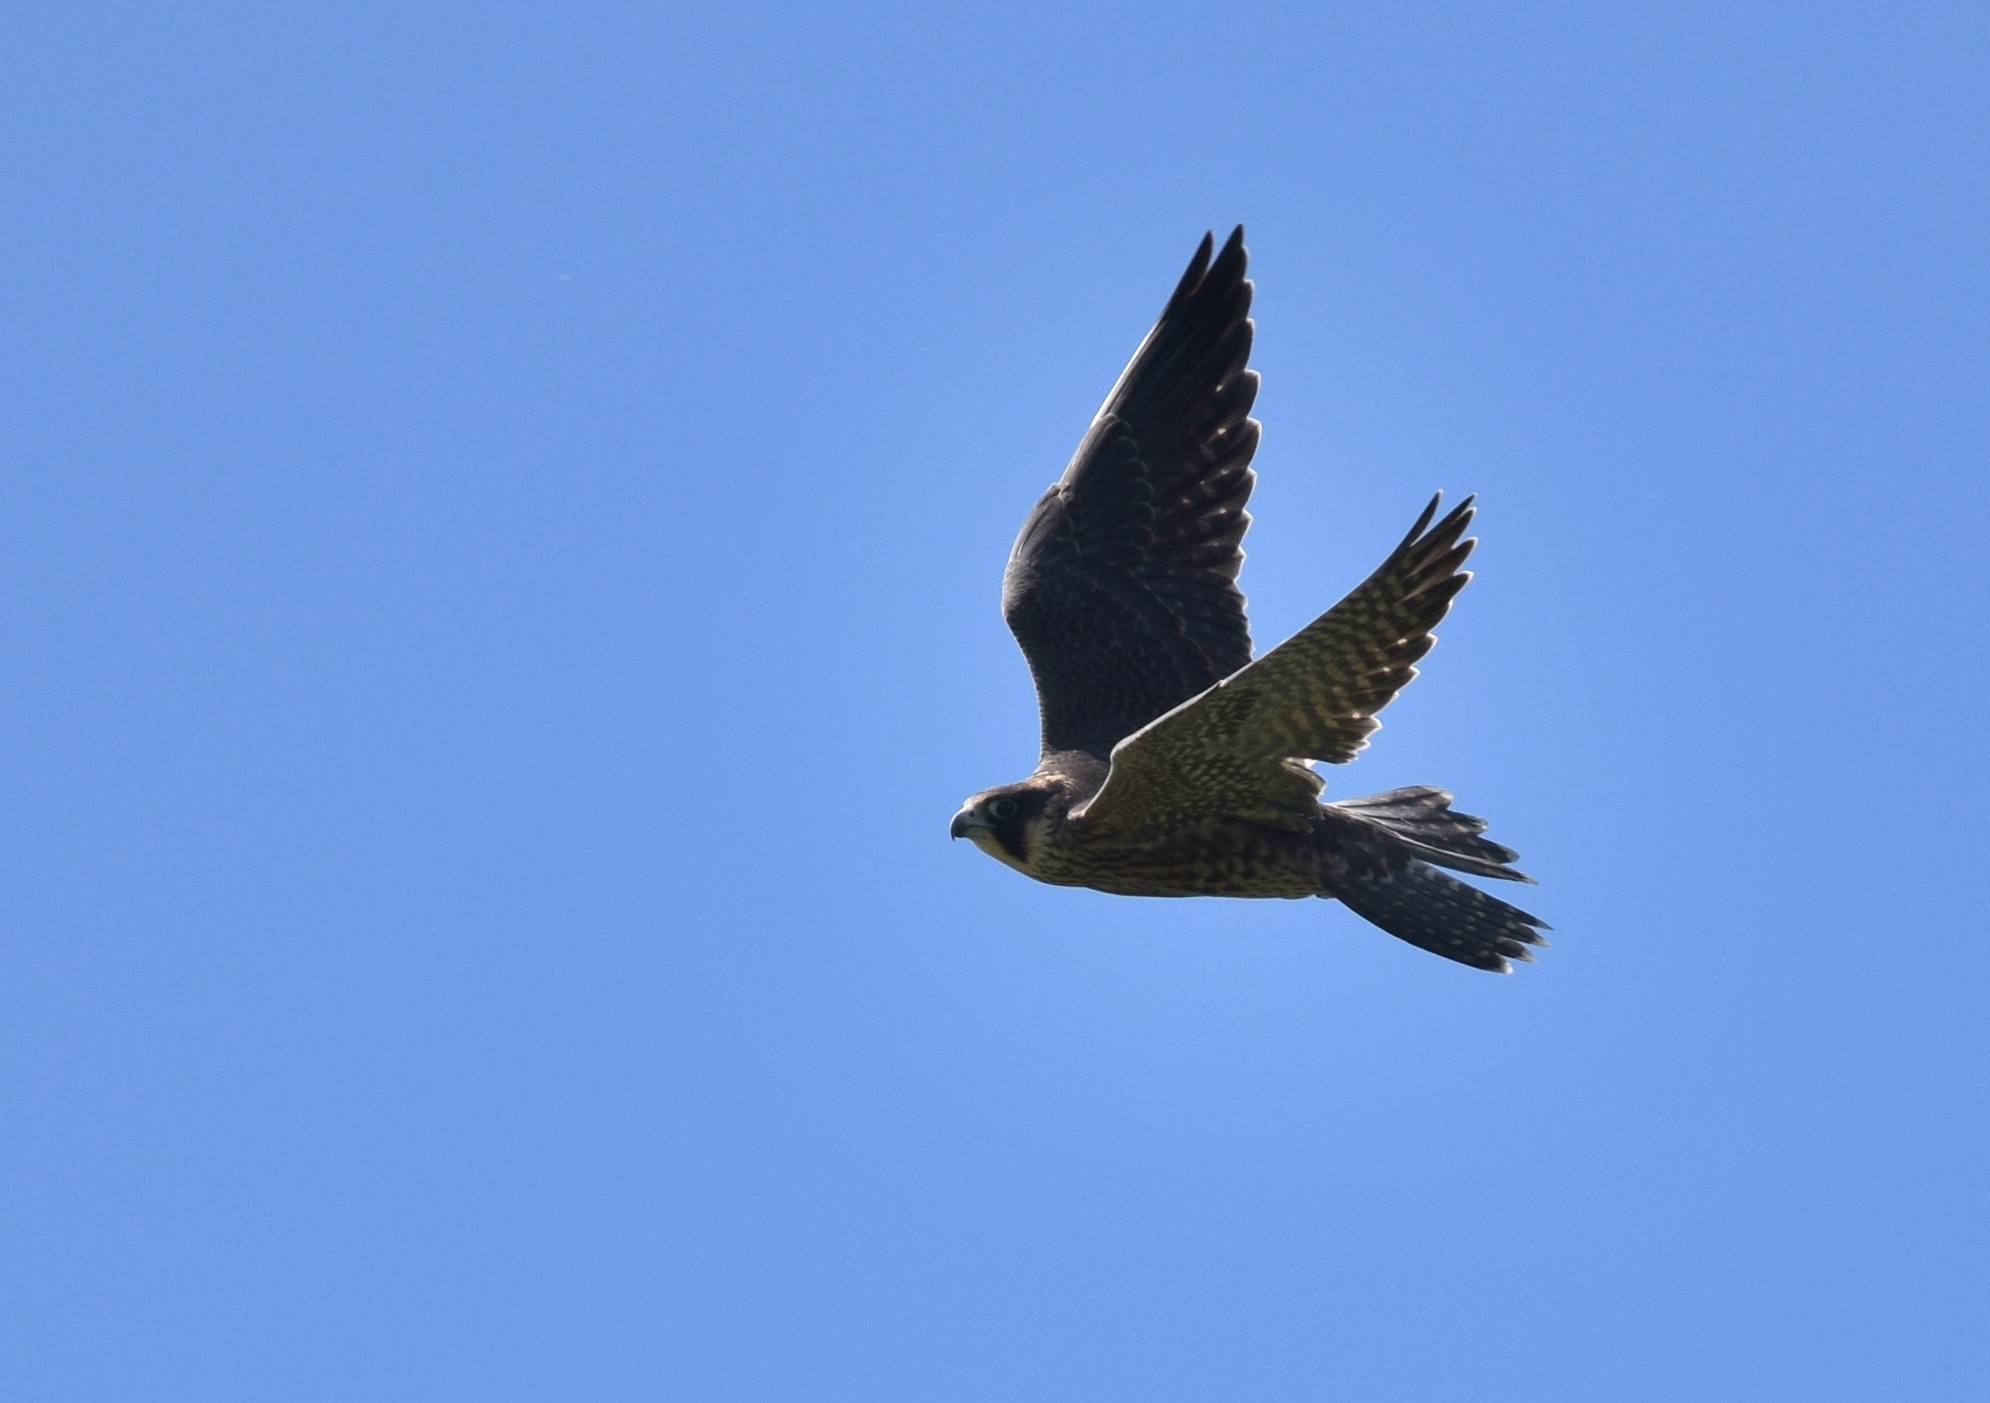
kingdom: Animalia
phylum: Chordata
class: Aves
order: Falconiformes
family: Falconidae
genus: Falco
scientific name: Falco peregrinus
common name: Peregrine falcon
